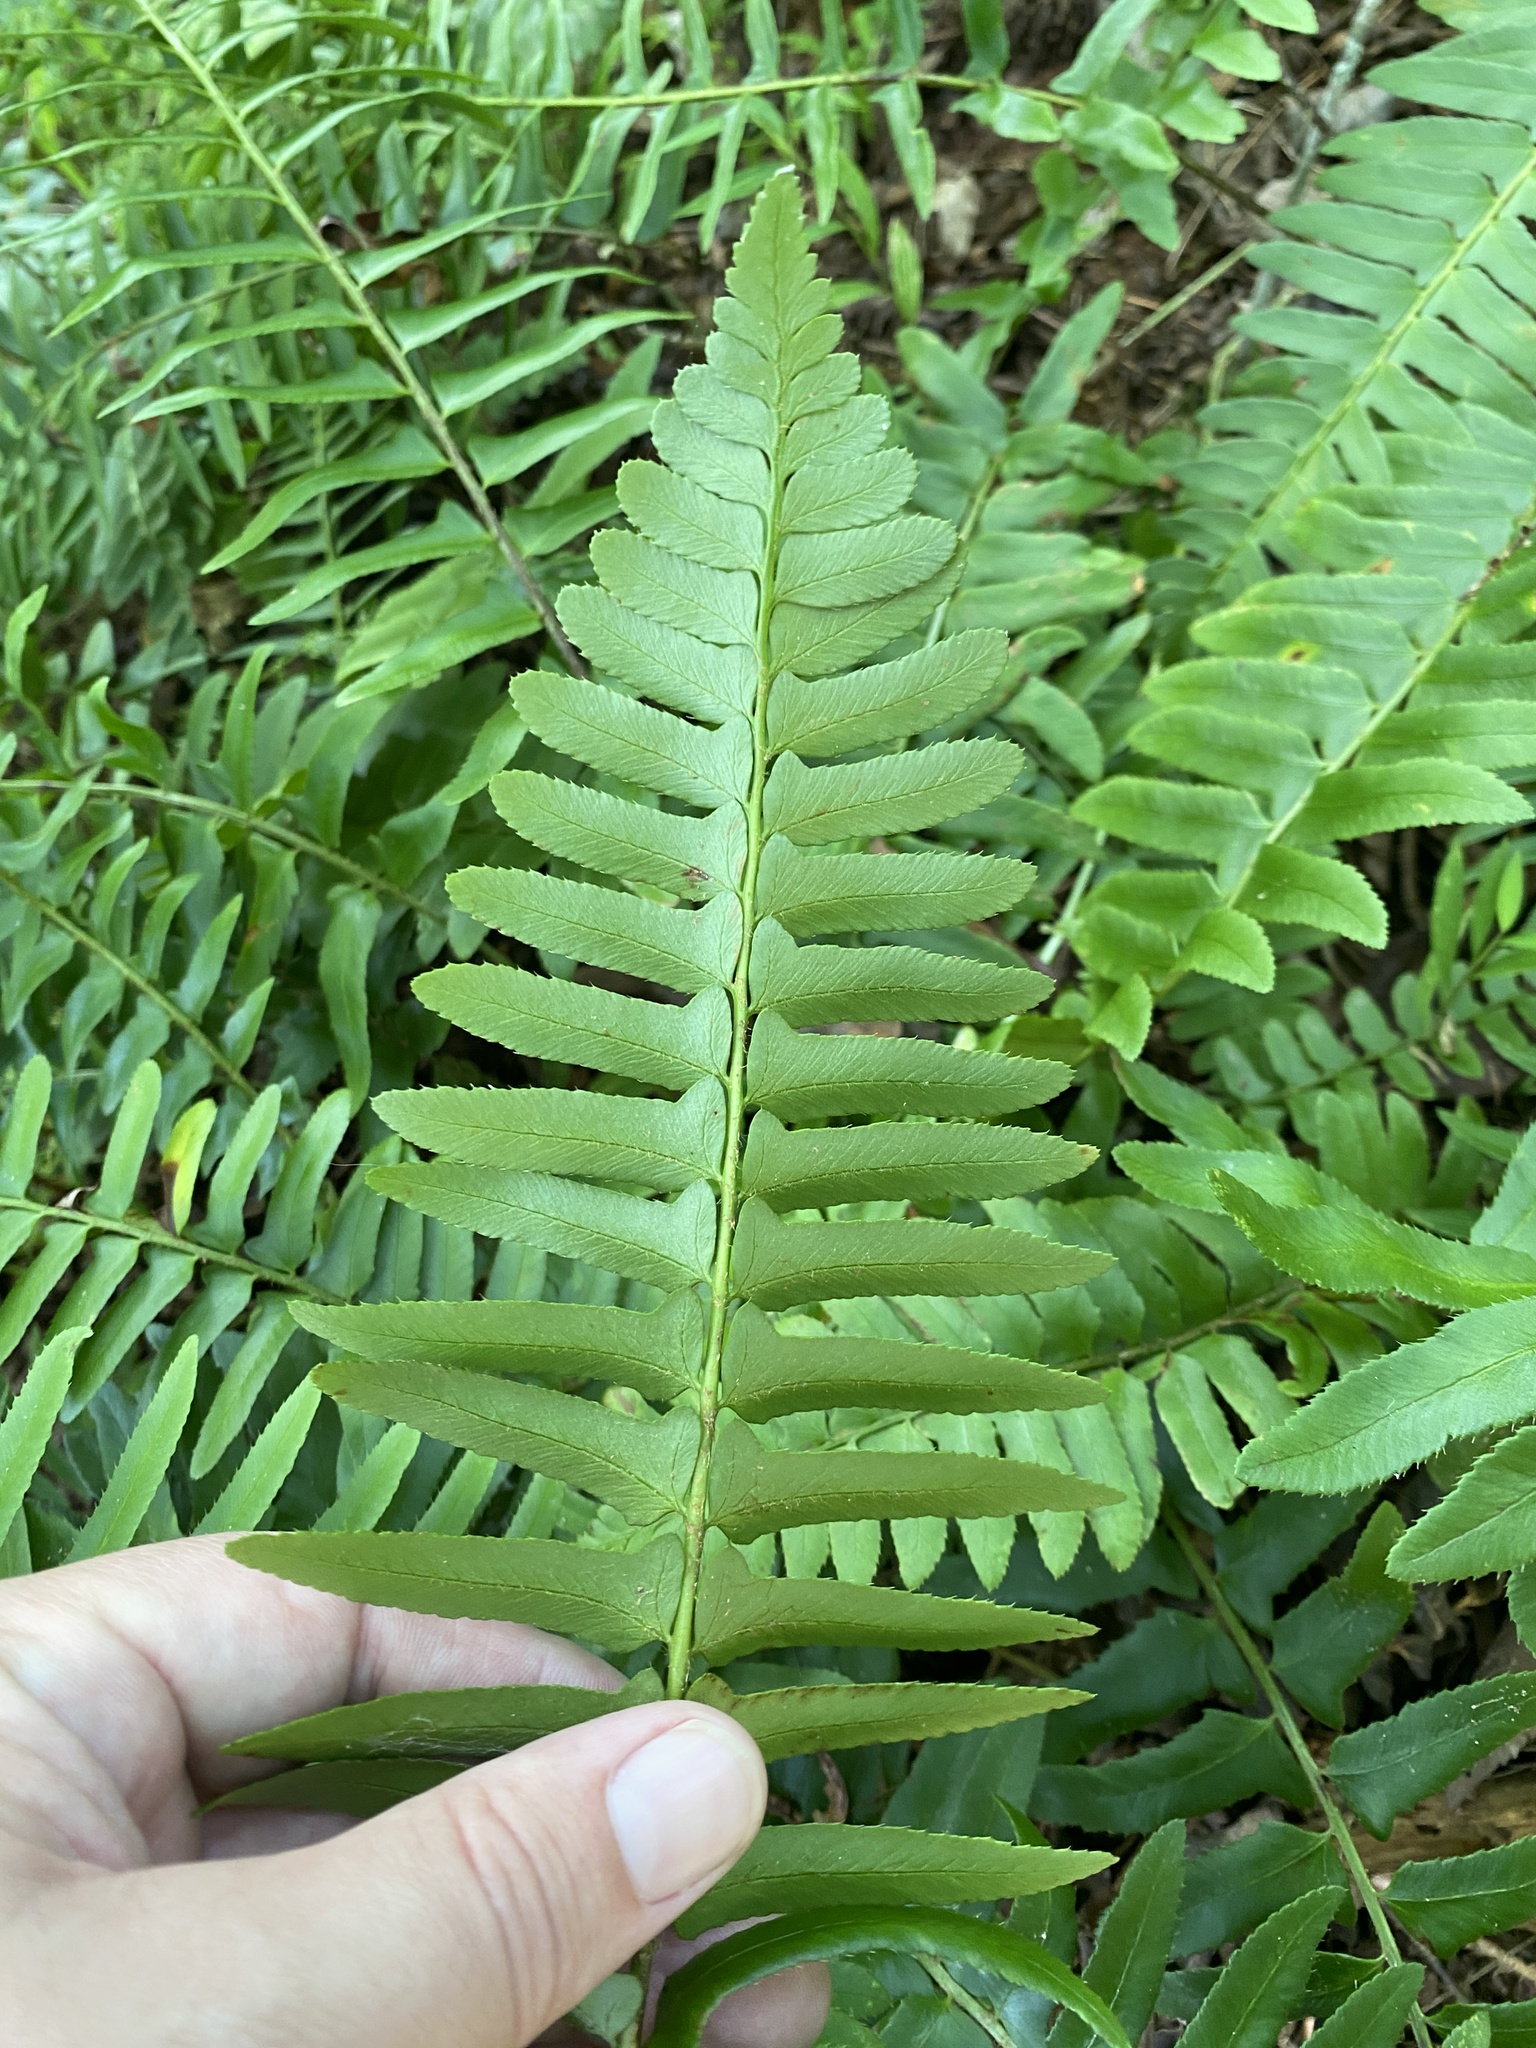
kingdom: Plantae
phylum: Tracheophyta
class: Polypodiopsida
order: Polypodiales
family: Dryopteridaceae
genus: Polystichum
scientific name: Polystichum acrostichoides
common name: Christmas fern
